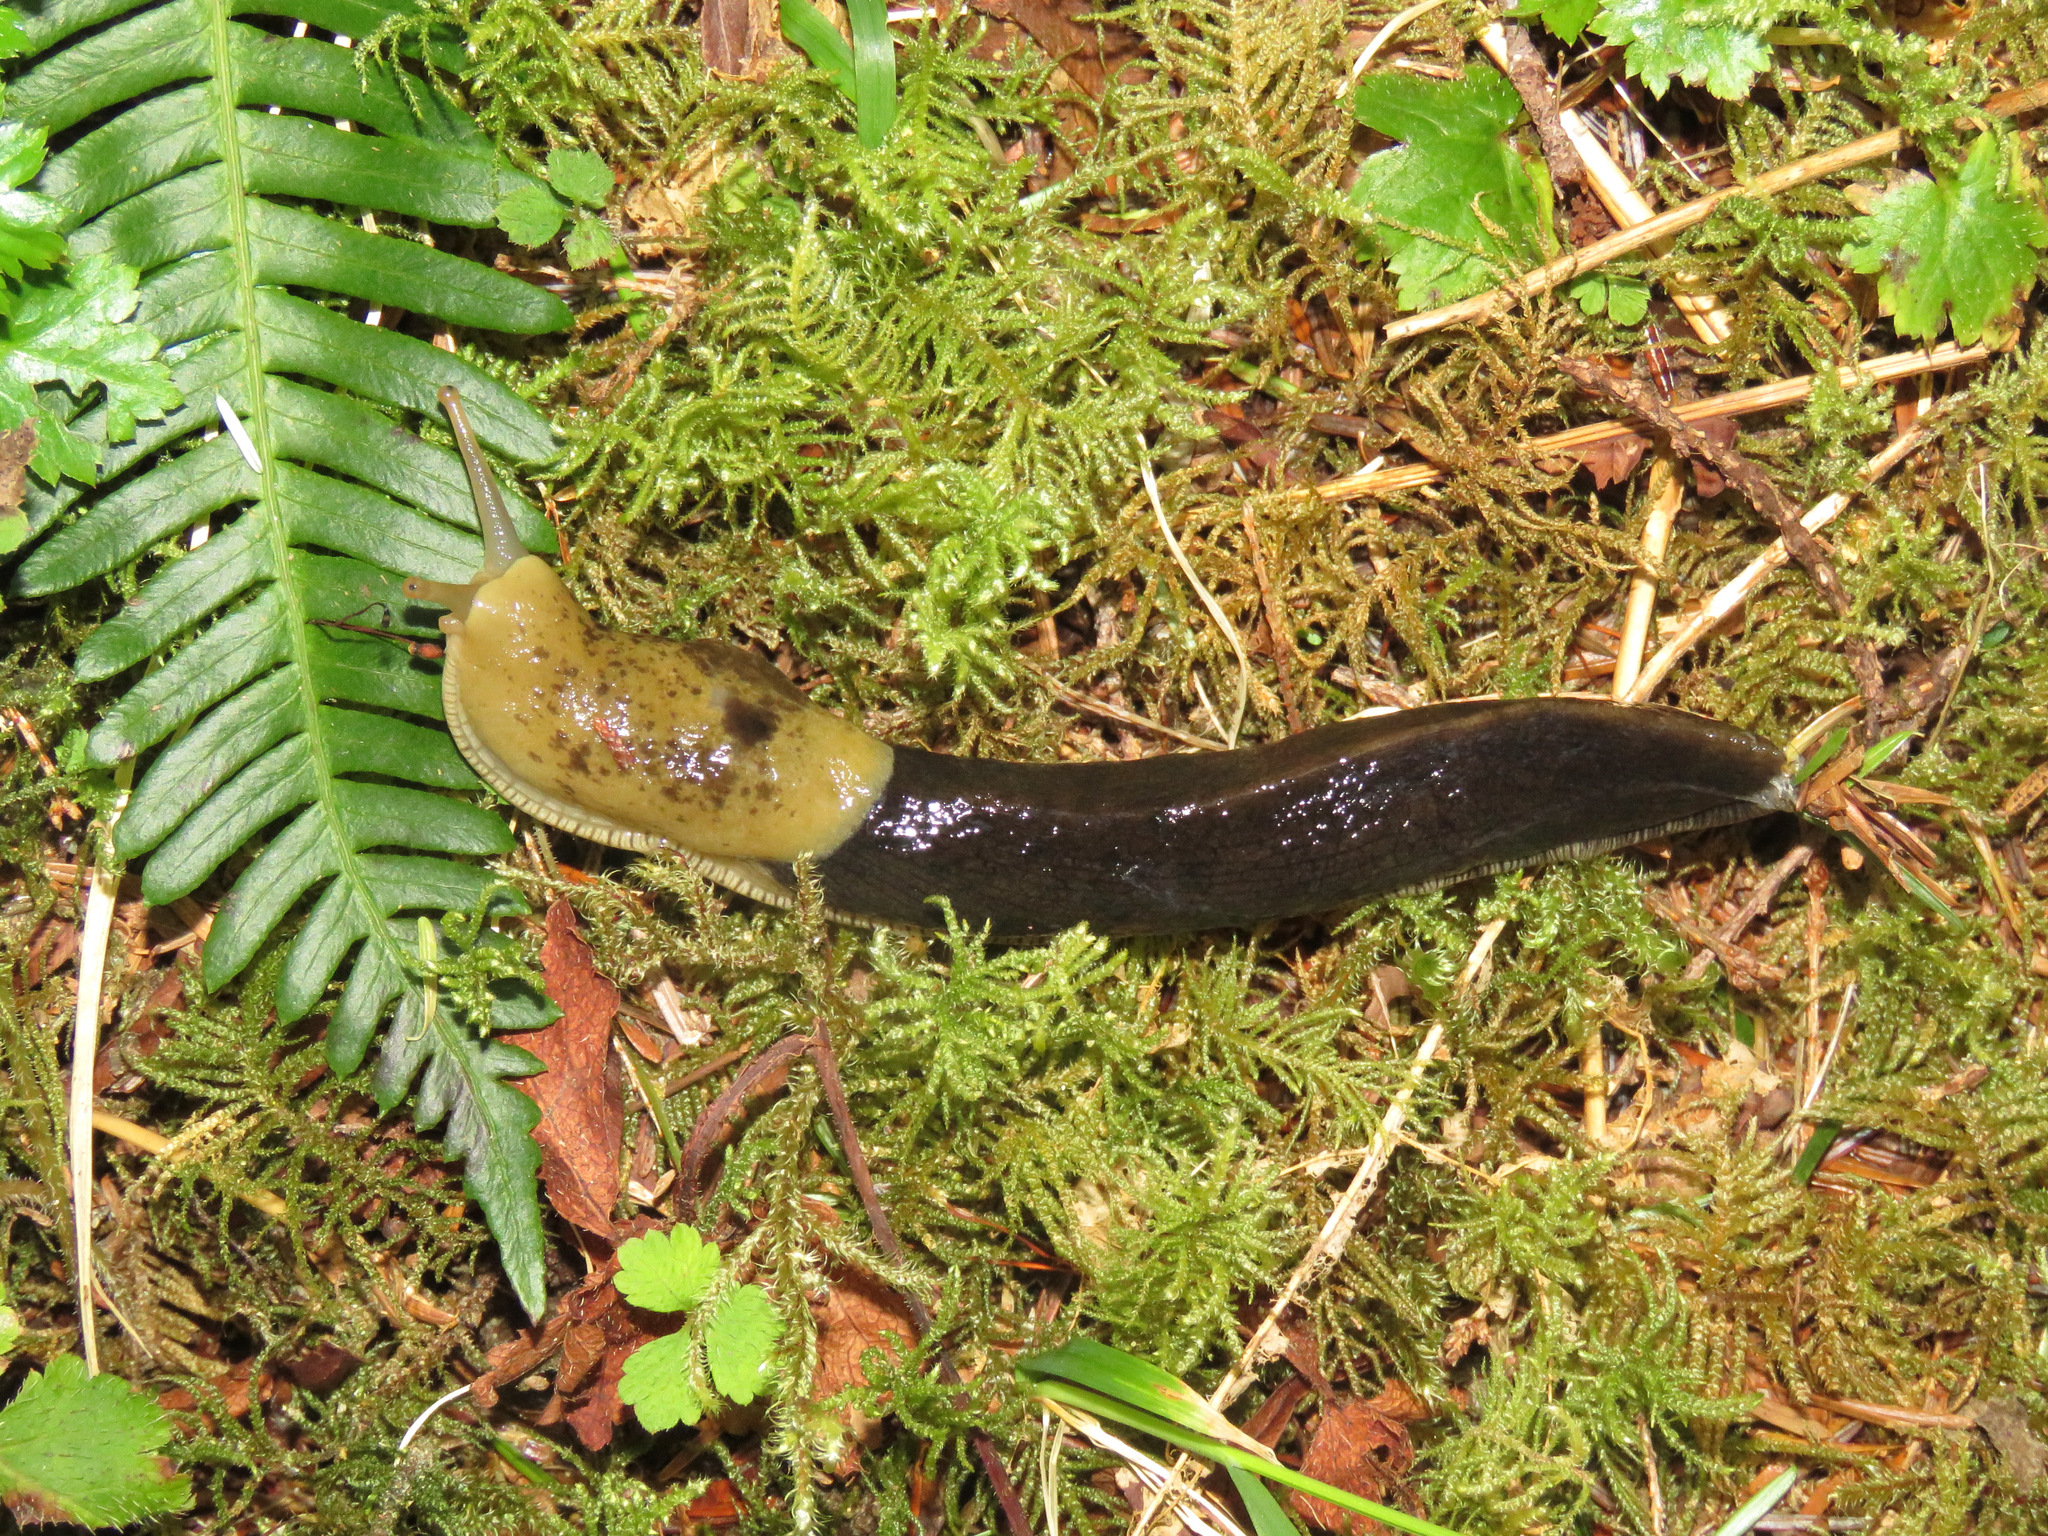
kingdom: Animalia
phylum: Mollusca
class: Gastropoda
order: Stylommatophora
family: Ariolimacidae
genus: Ariolimax
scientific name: Ariolimax columbianus
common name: Pacific banana slug
